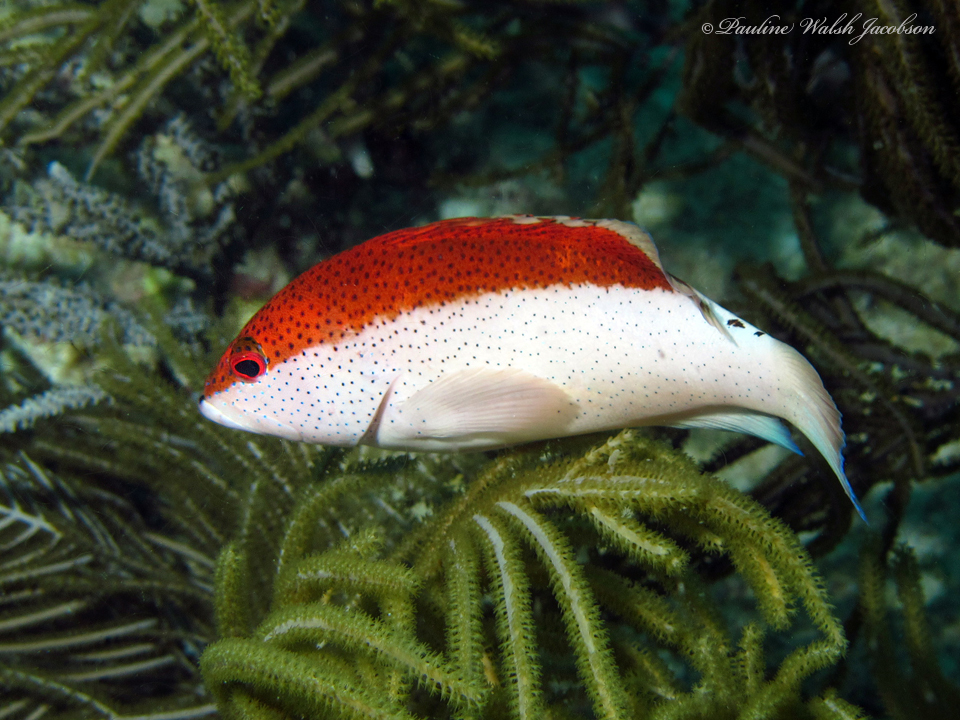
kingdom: Animalia
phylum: Chordata
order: Perciformes
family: Serranidae
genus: Cephalopholis
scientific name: Cephalopholis fulva
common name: Butterfish
